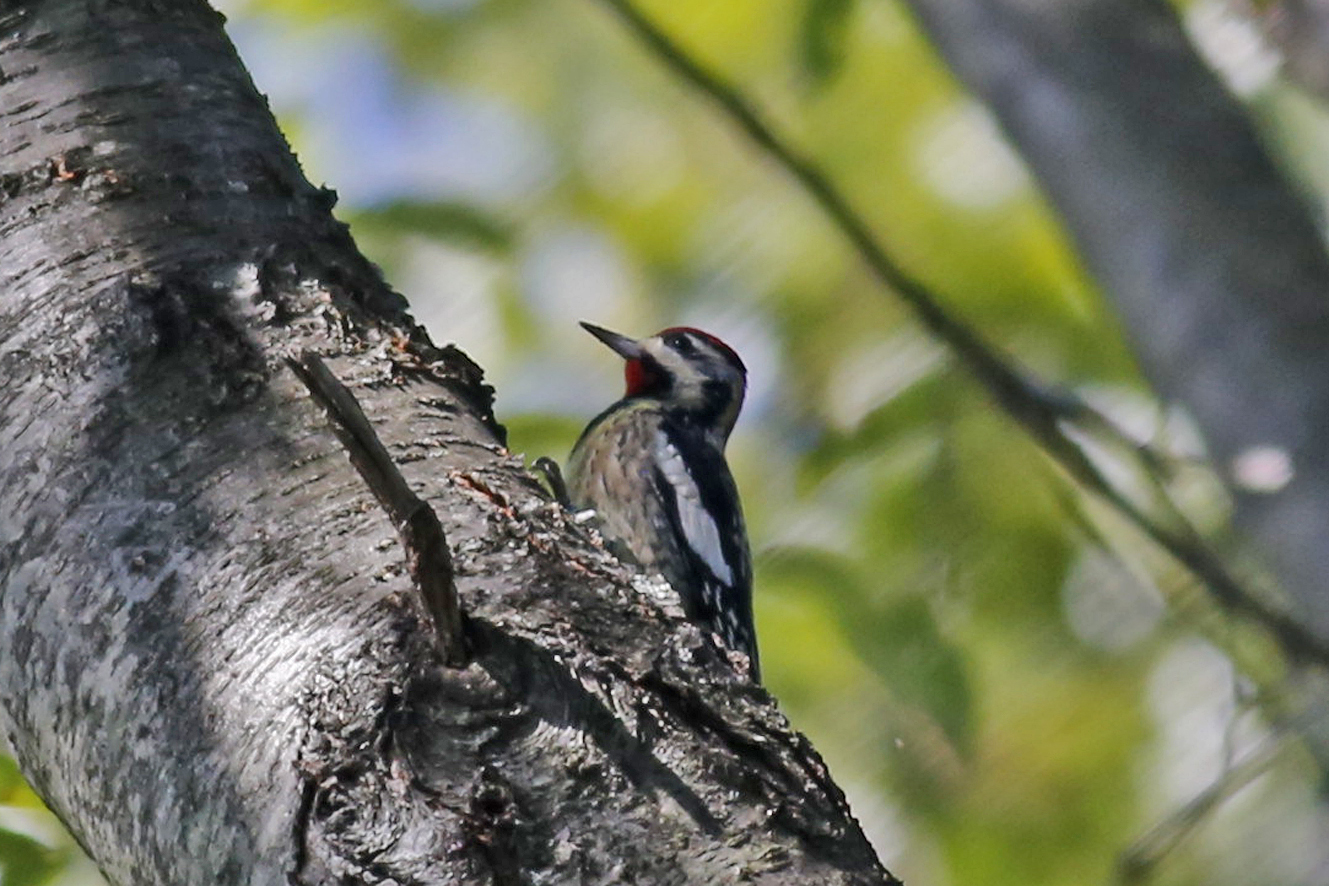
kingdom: Animalia
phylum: Chordata
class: Aves
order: Piciformes
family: Picidae
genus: Sphyrapicus
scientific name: Sphyrapicus varius
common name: Yellow-bellied sapsucker
